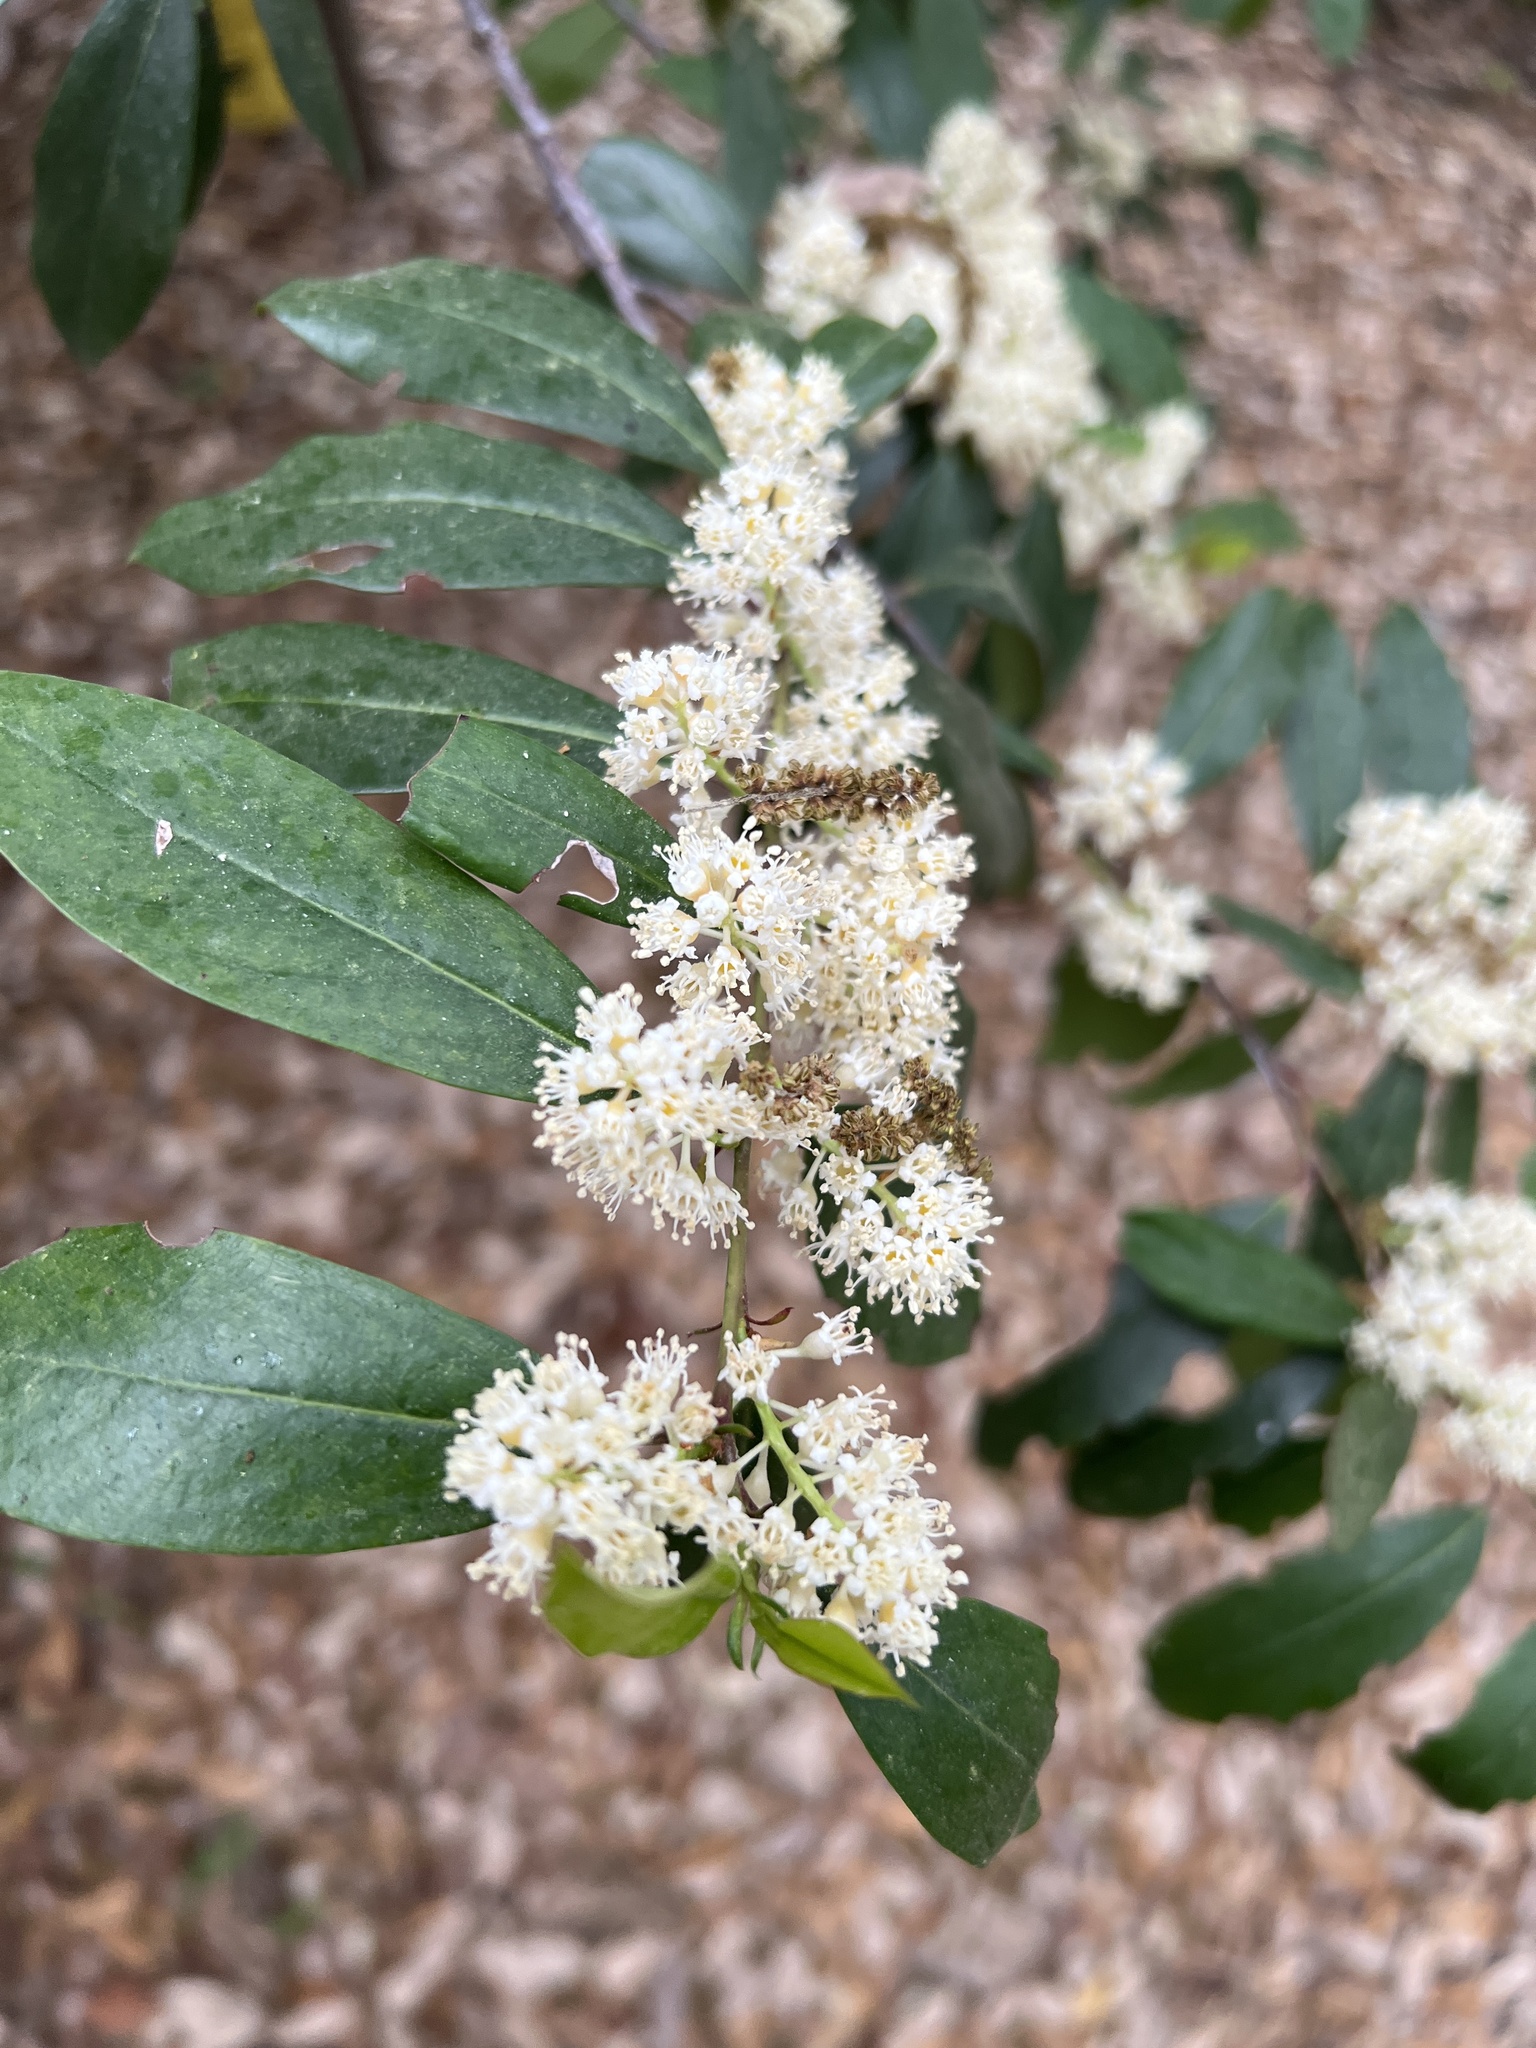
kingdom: Plantae
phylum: Tracheophyta
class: Magnoliopsida
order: Rosales
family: Rosaceae
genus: Prunus
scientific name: Prunus caroliniana
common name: Carolina laurel cherry
